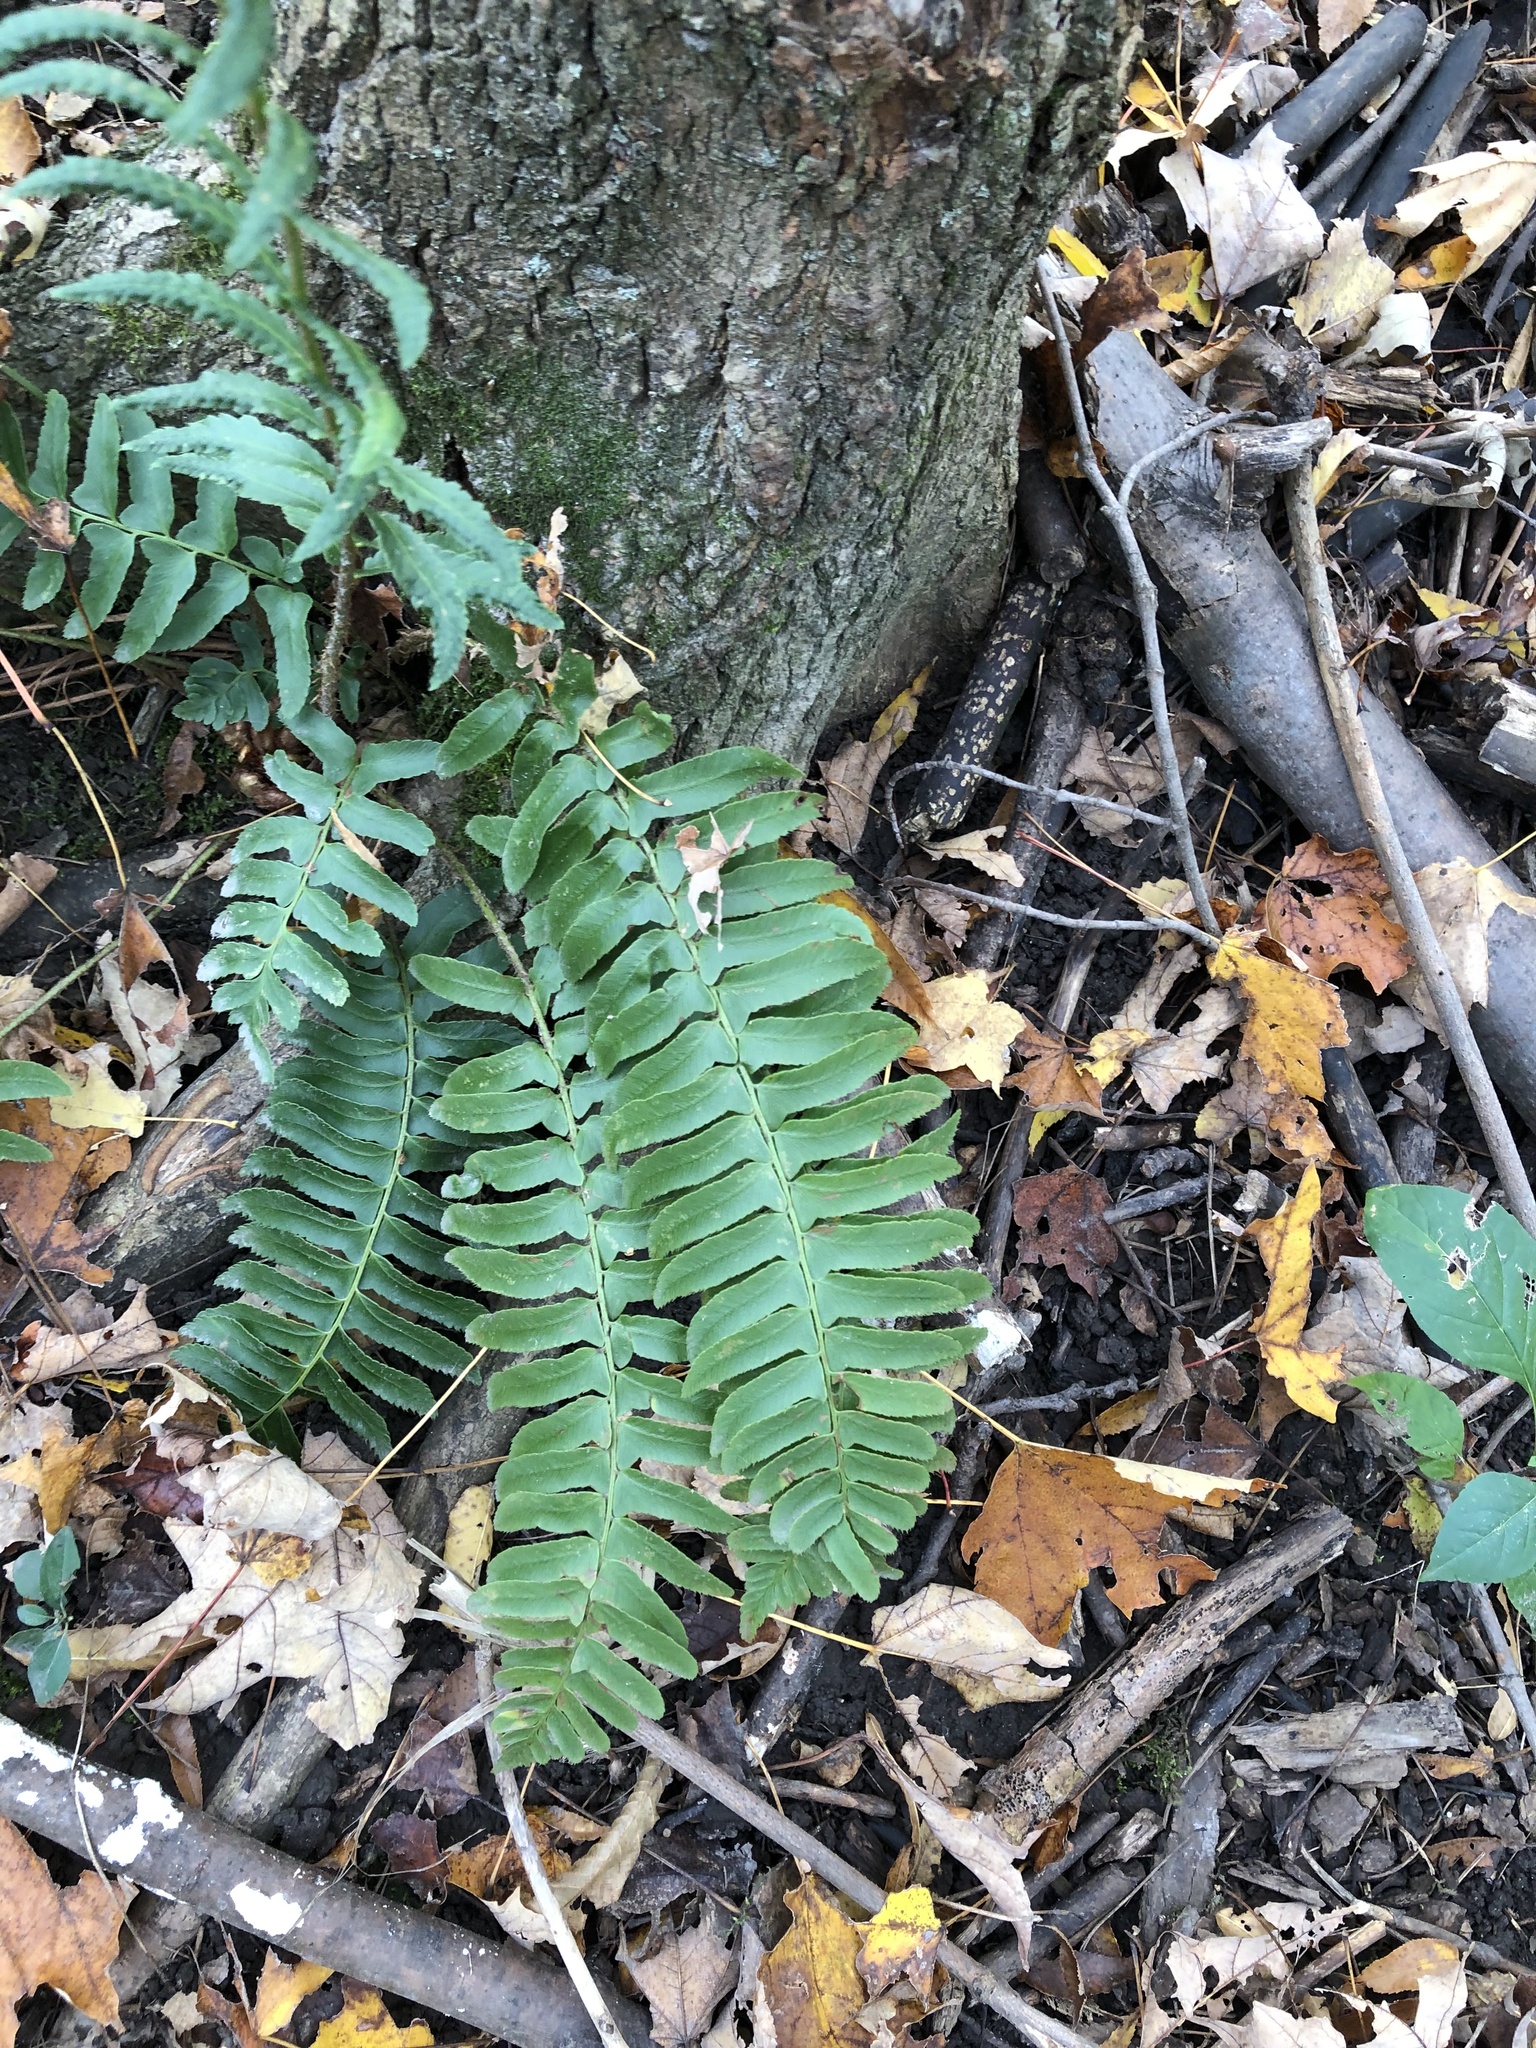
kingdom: Plantae
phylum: Tracheophyta
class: Polypodiopsida
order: Polypodiales
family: Dryopteridaceae
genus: Polystichum
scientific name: Polystichum acrostichoides
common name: Christmas fern
